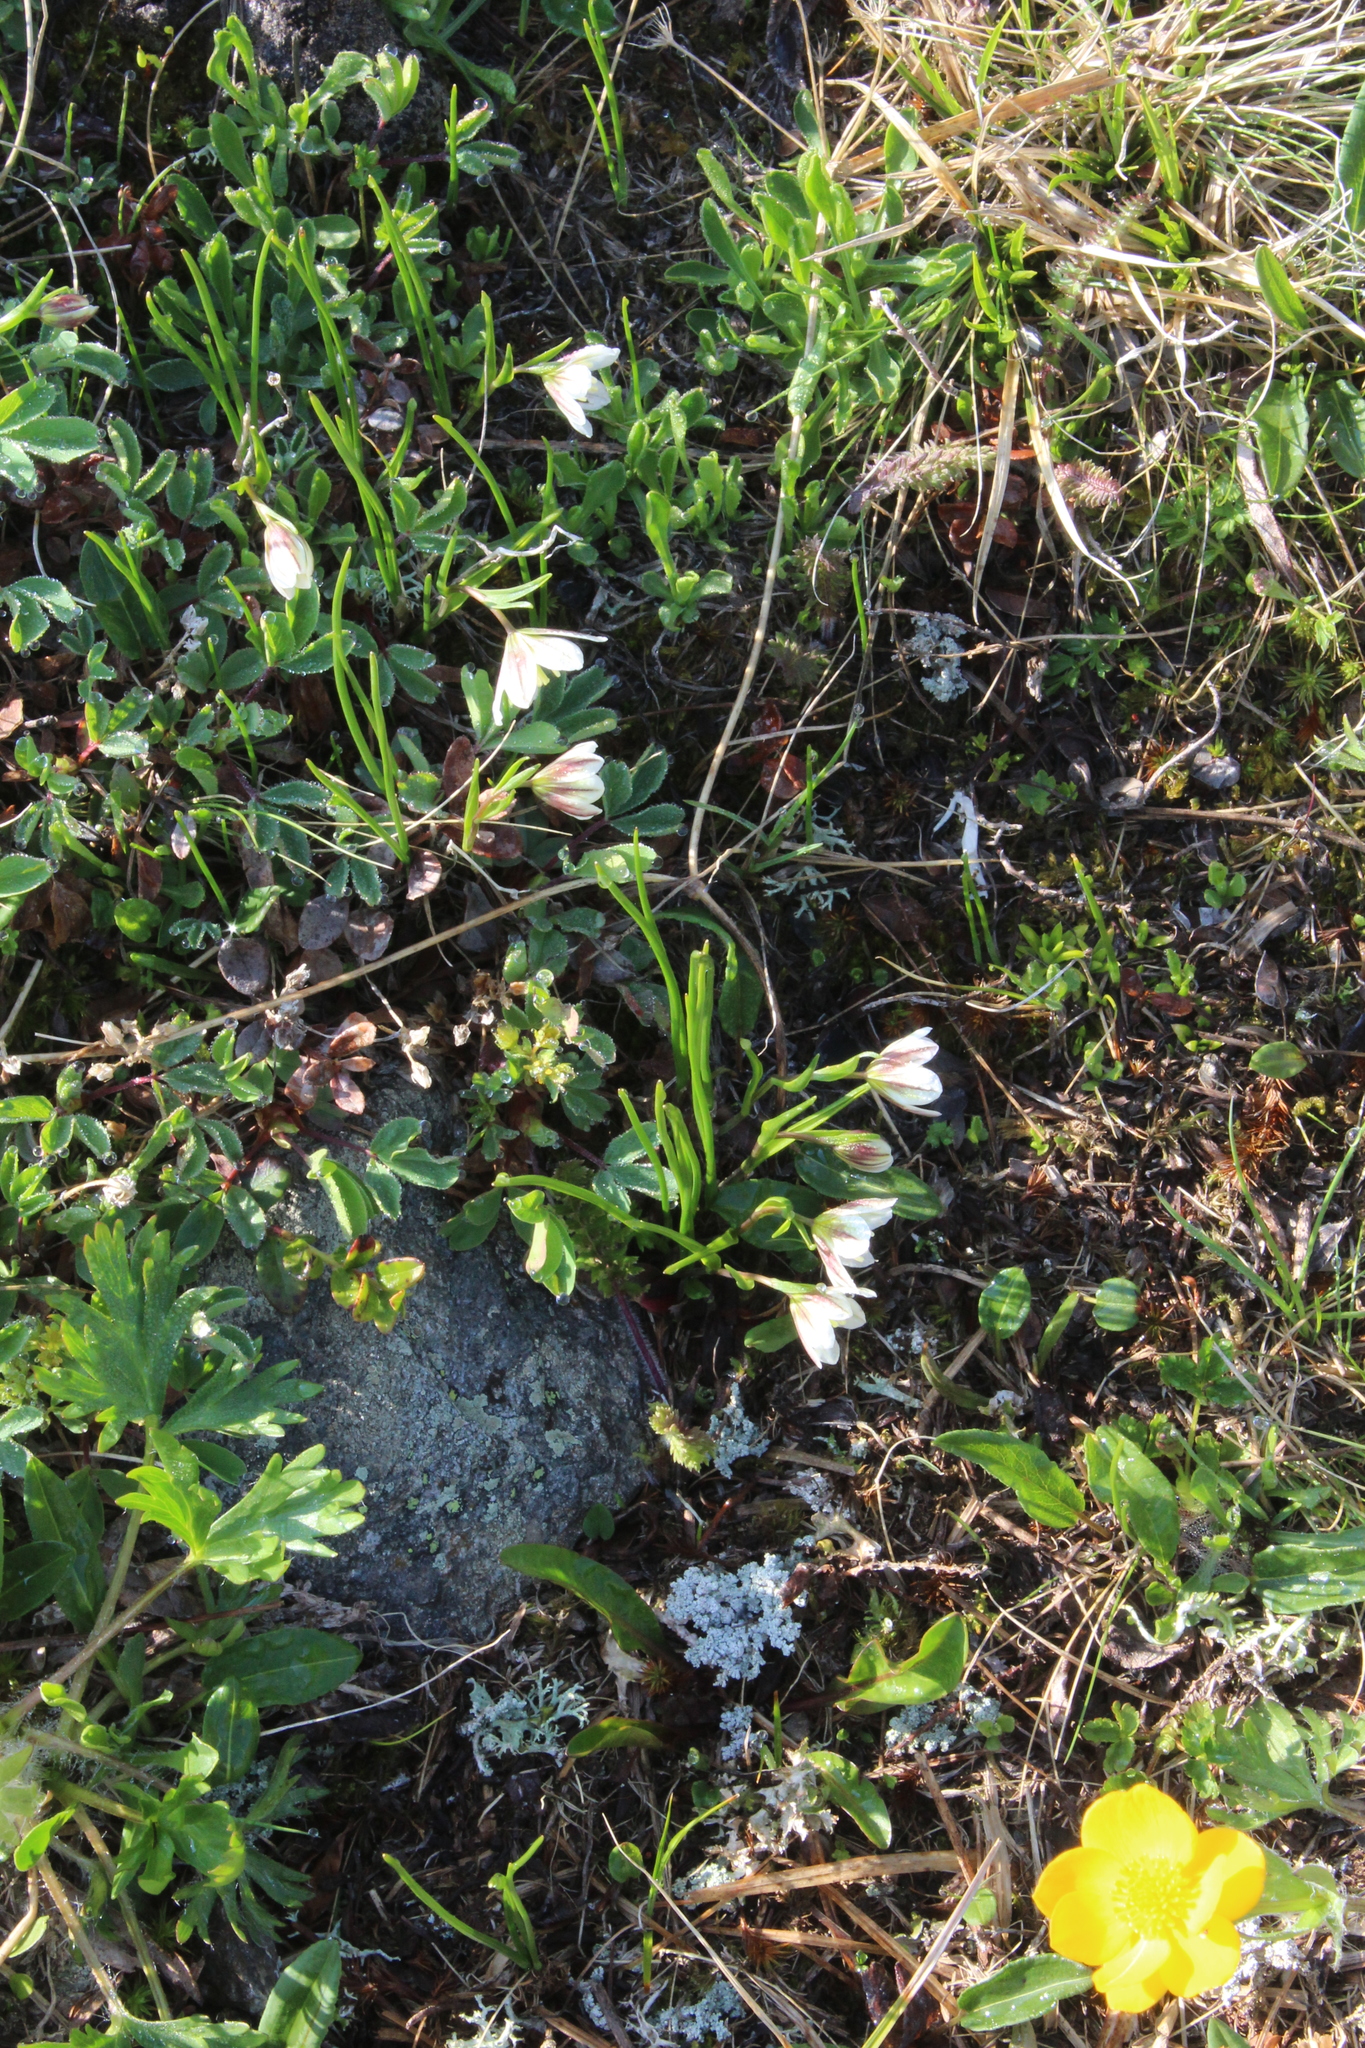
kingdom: Plantae
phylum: Tracheophyta
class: Liliopsida
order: Liliales
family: Liliaceae
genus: Gagea
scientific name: Gagea serotina
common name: Snowdon lily
